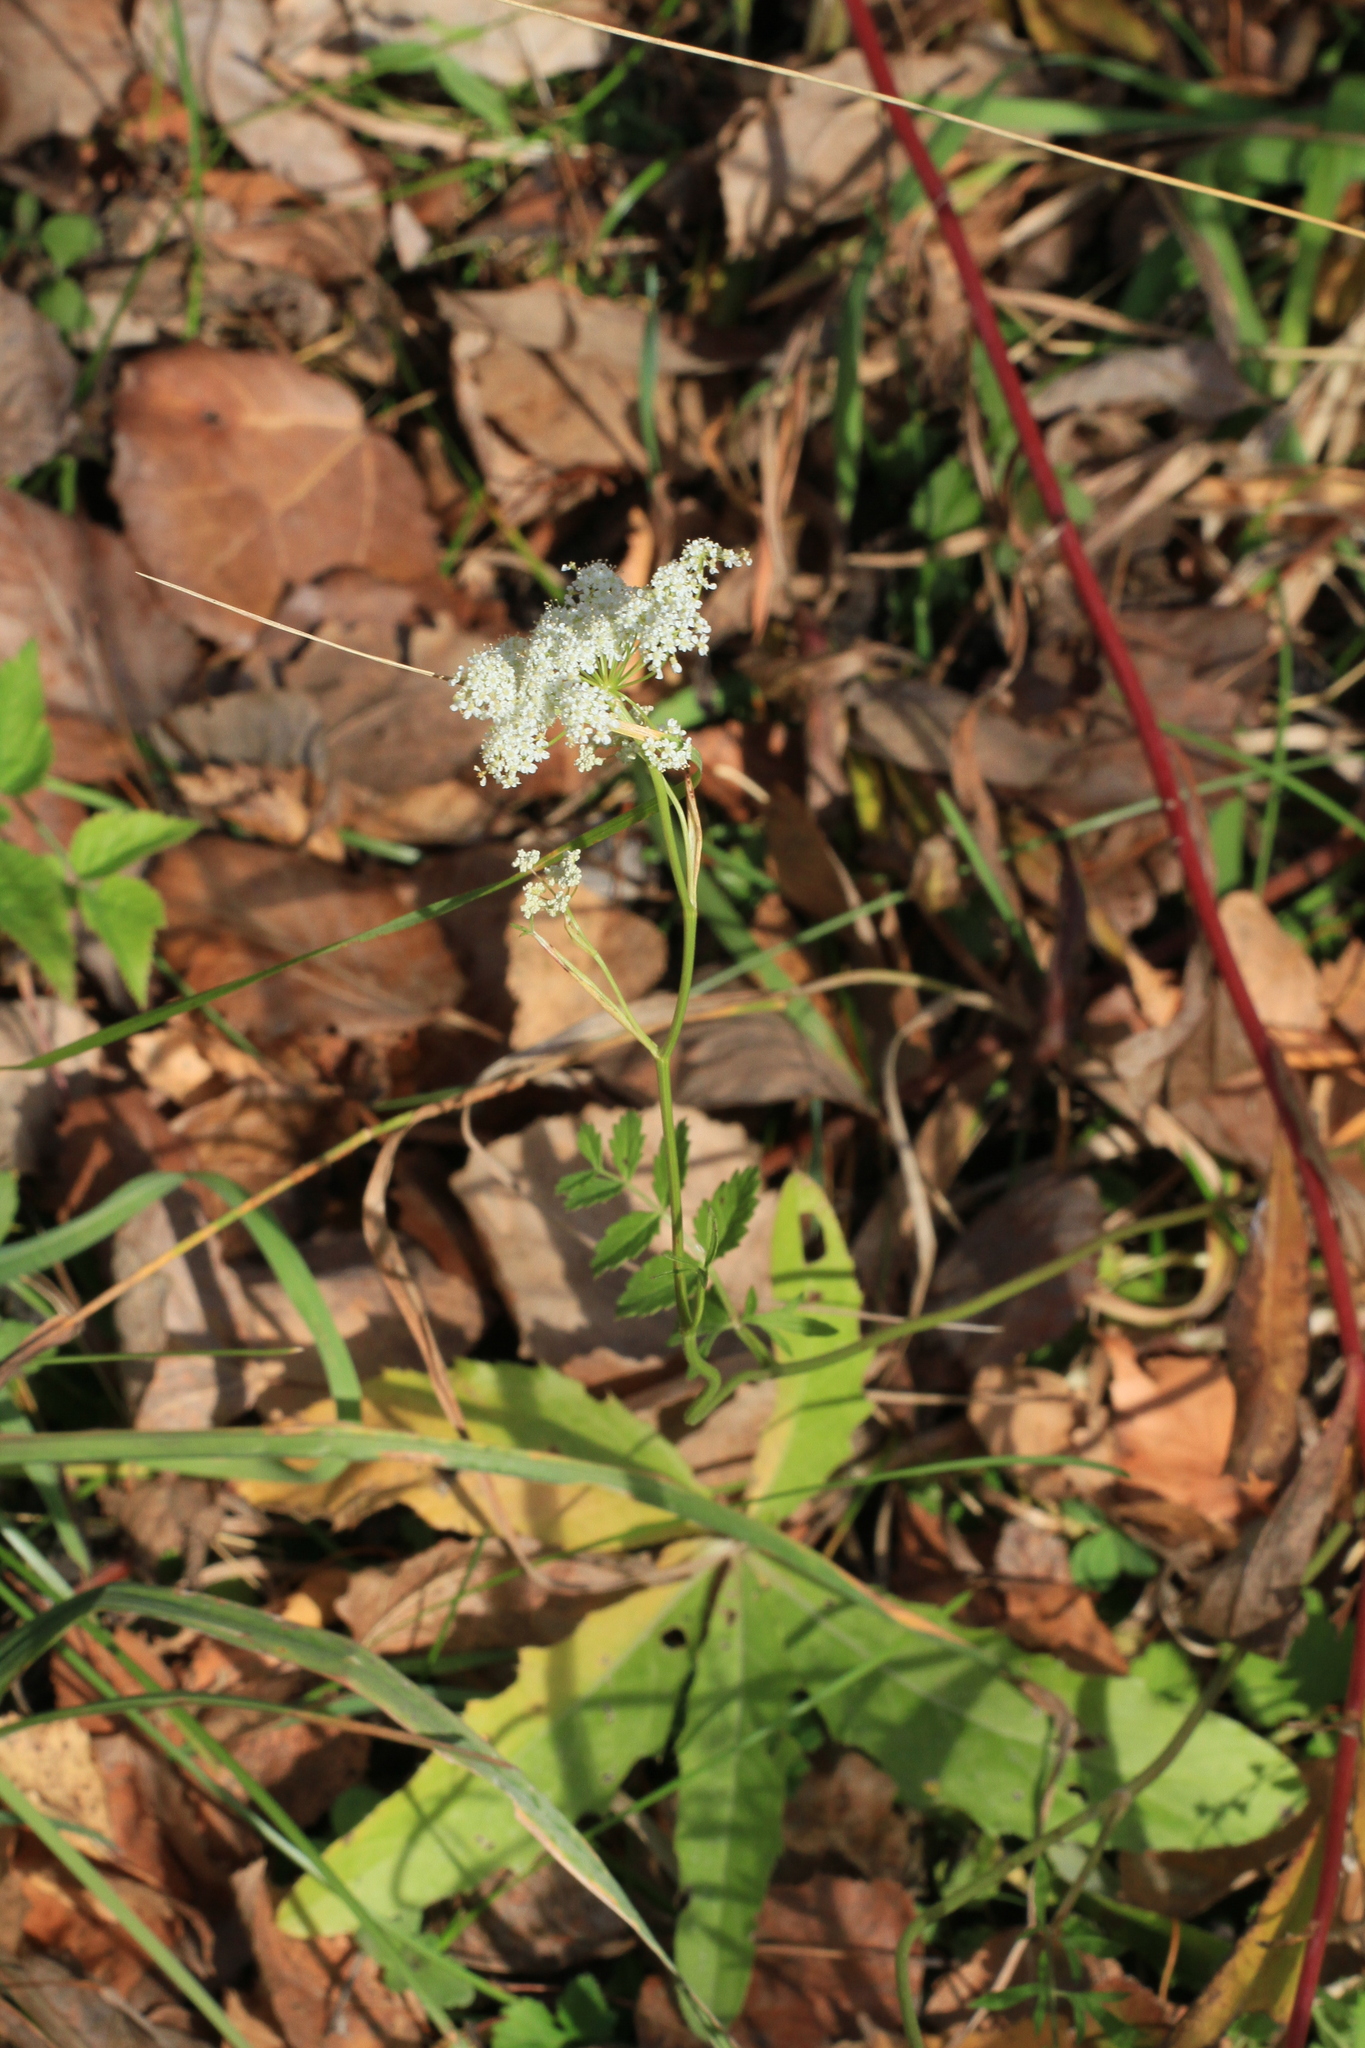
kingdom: Plantae
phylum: Tracheophyta
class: Magnoliopsida
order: Apiales
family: Apiaceae
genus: Pimpinella
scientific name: Pimpinella saxifraga
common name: Burnet-saxifrage
